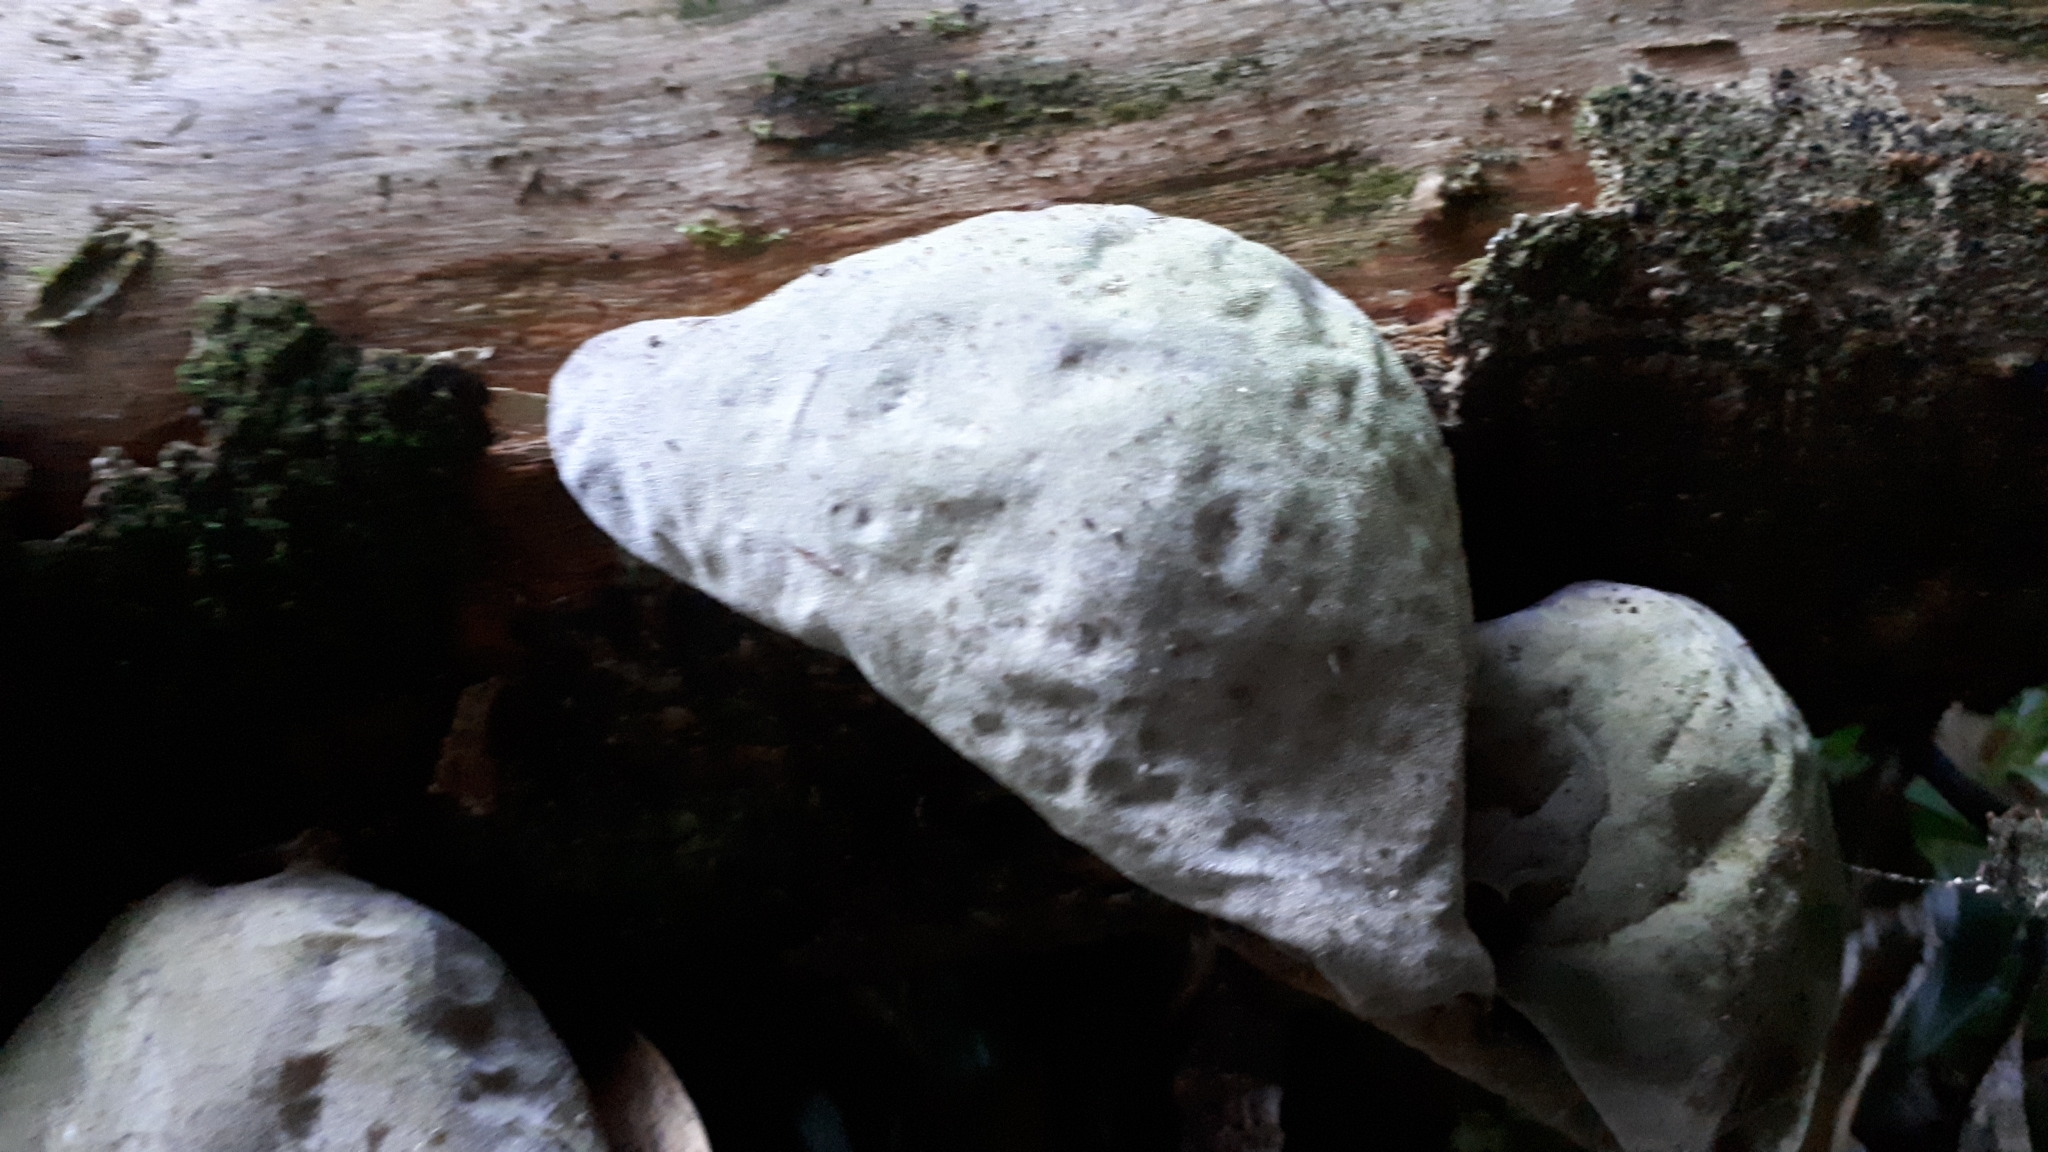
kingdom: Fungi
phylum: Basidiomycota
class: Agaricomycetes
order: Auriculariales
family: Auriculariaceae
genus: Auricularia
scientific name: Auricularia cornea
